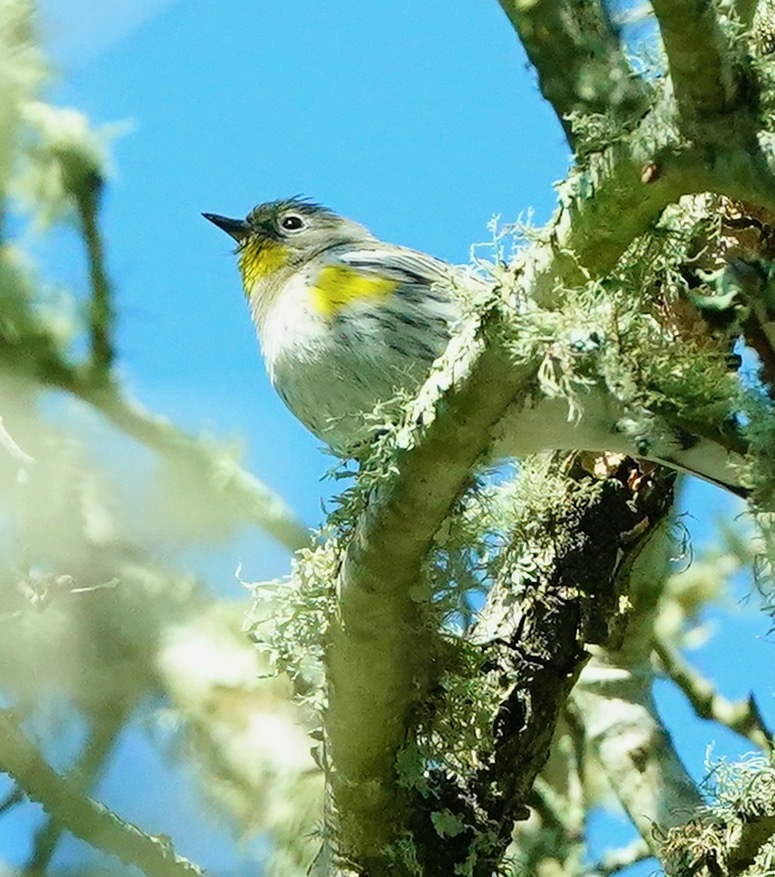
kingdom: Animalia
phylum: Chordata
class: Aves
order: Passeriformes
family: Parulidae
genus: Setophaga
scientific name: Setophaga coronata
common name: Myrtle warbler
